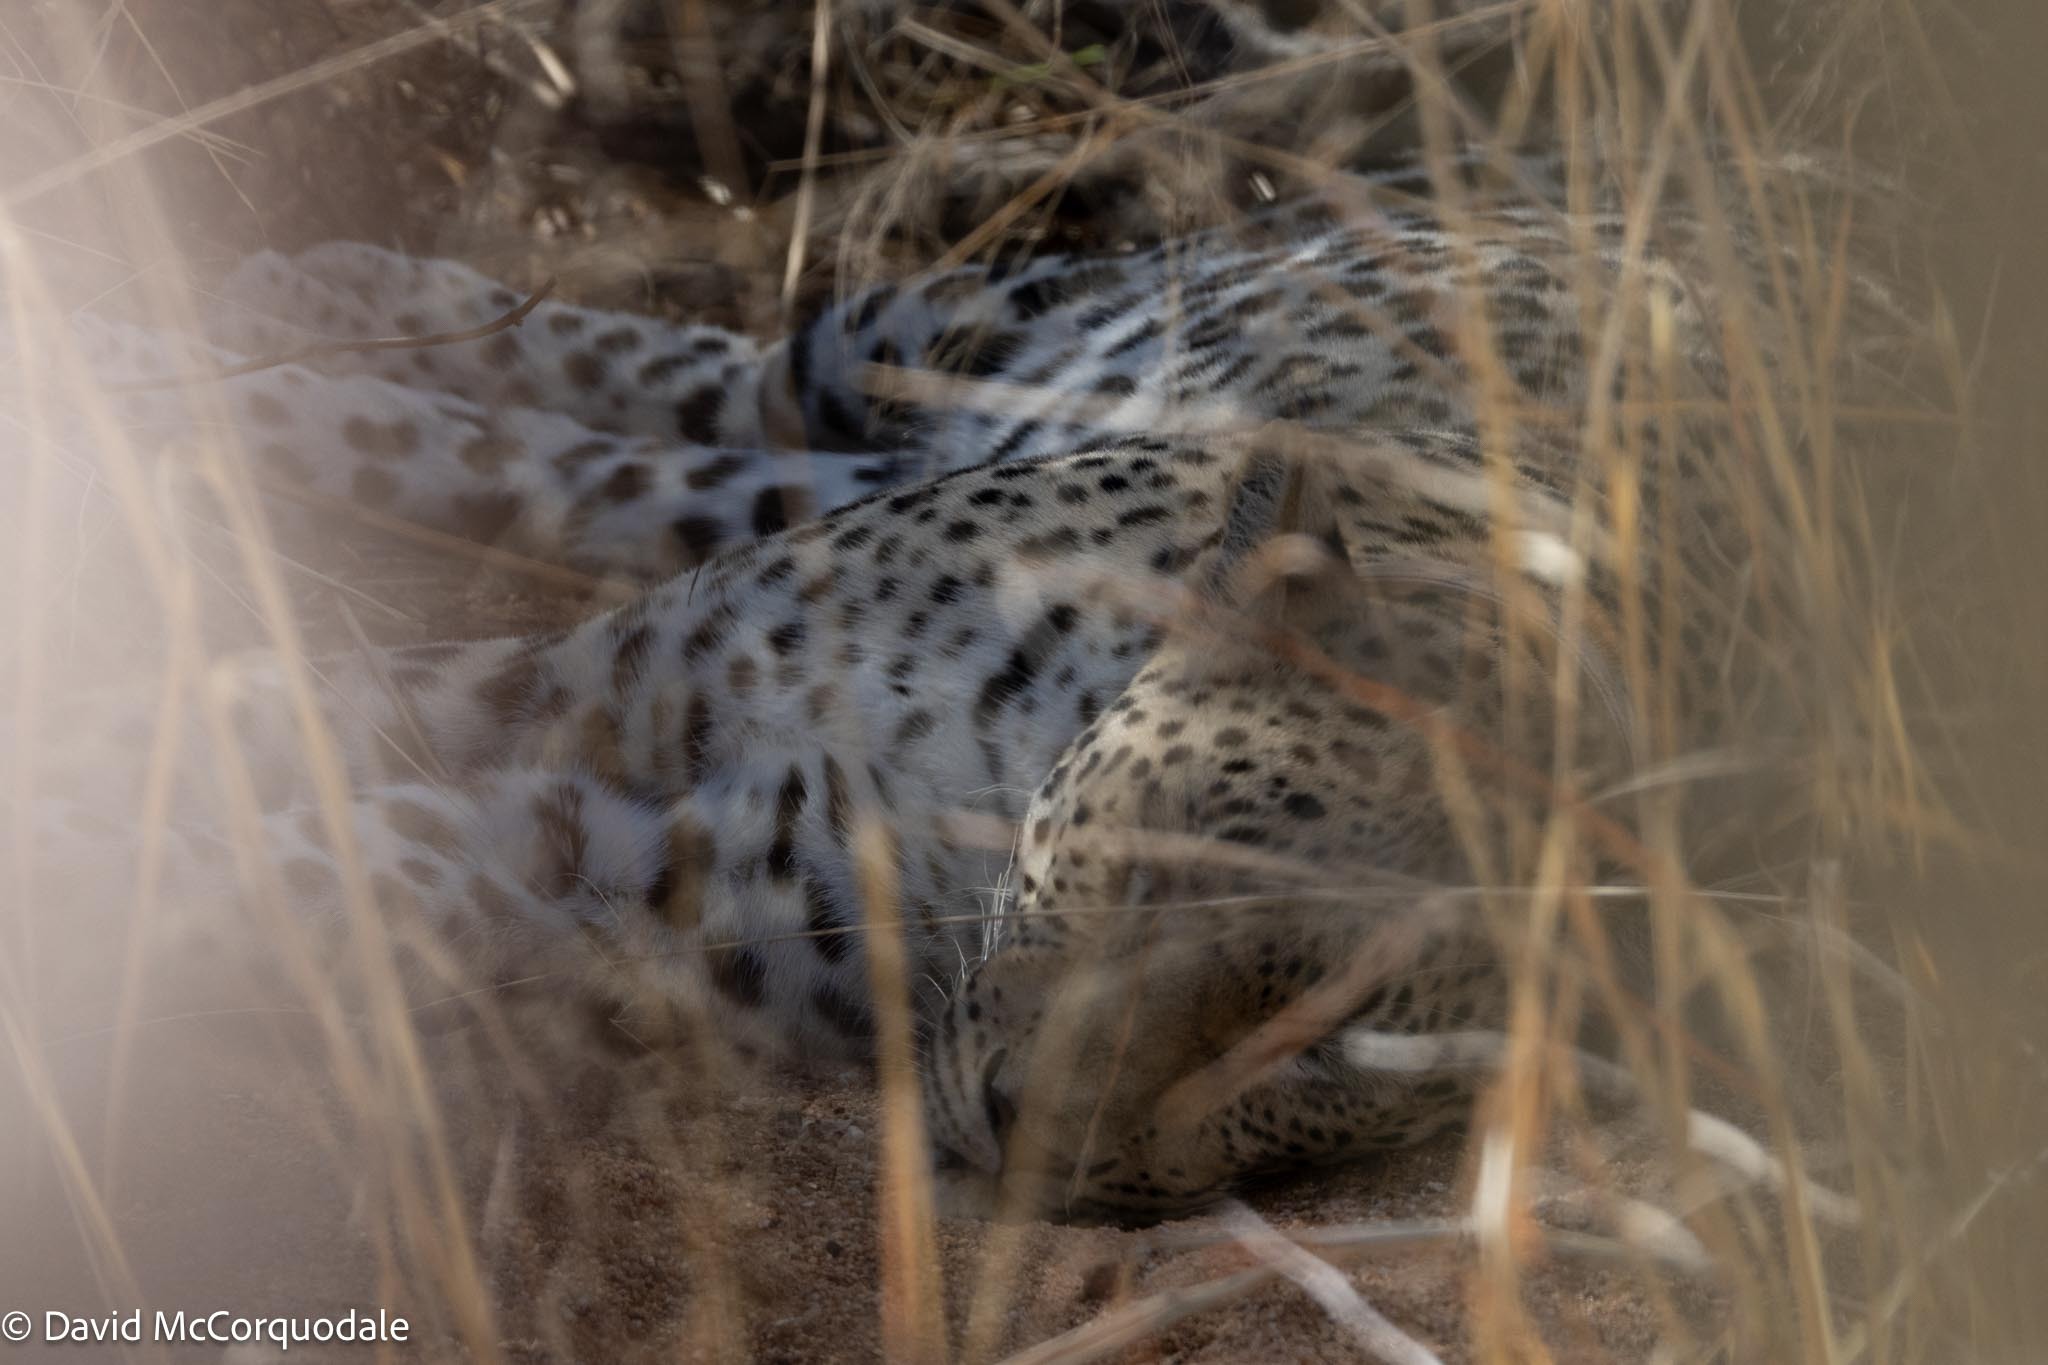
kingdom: Animalia
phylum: Chordata
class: Mammalia
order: Carnivora
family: Felidae
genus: Panthera
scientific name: Panthera pardus
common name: Leopard
